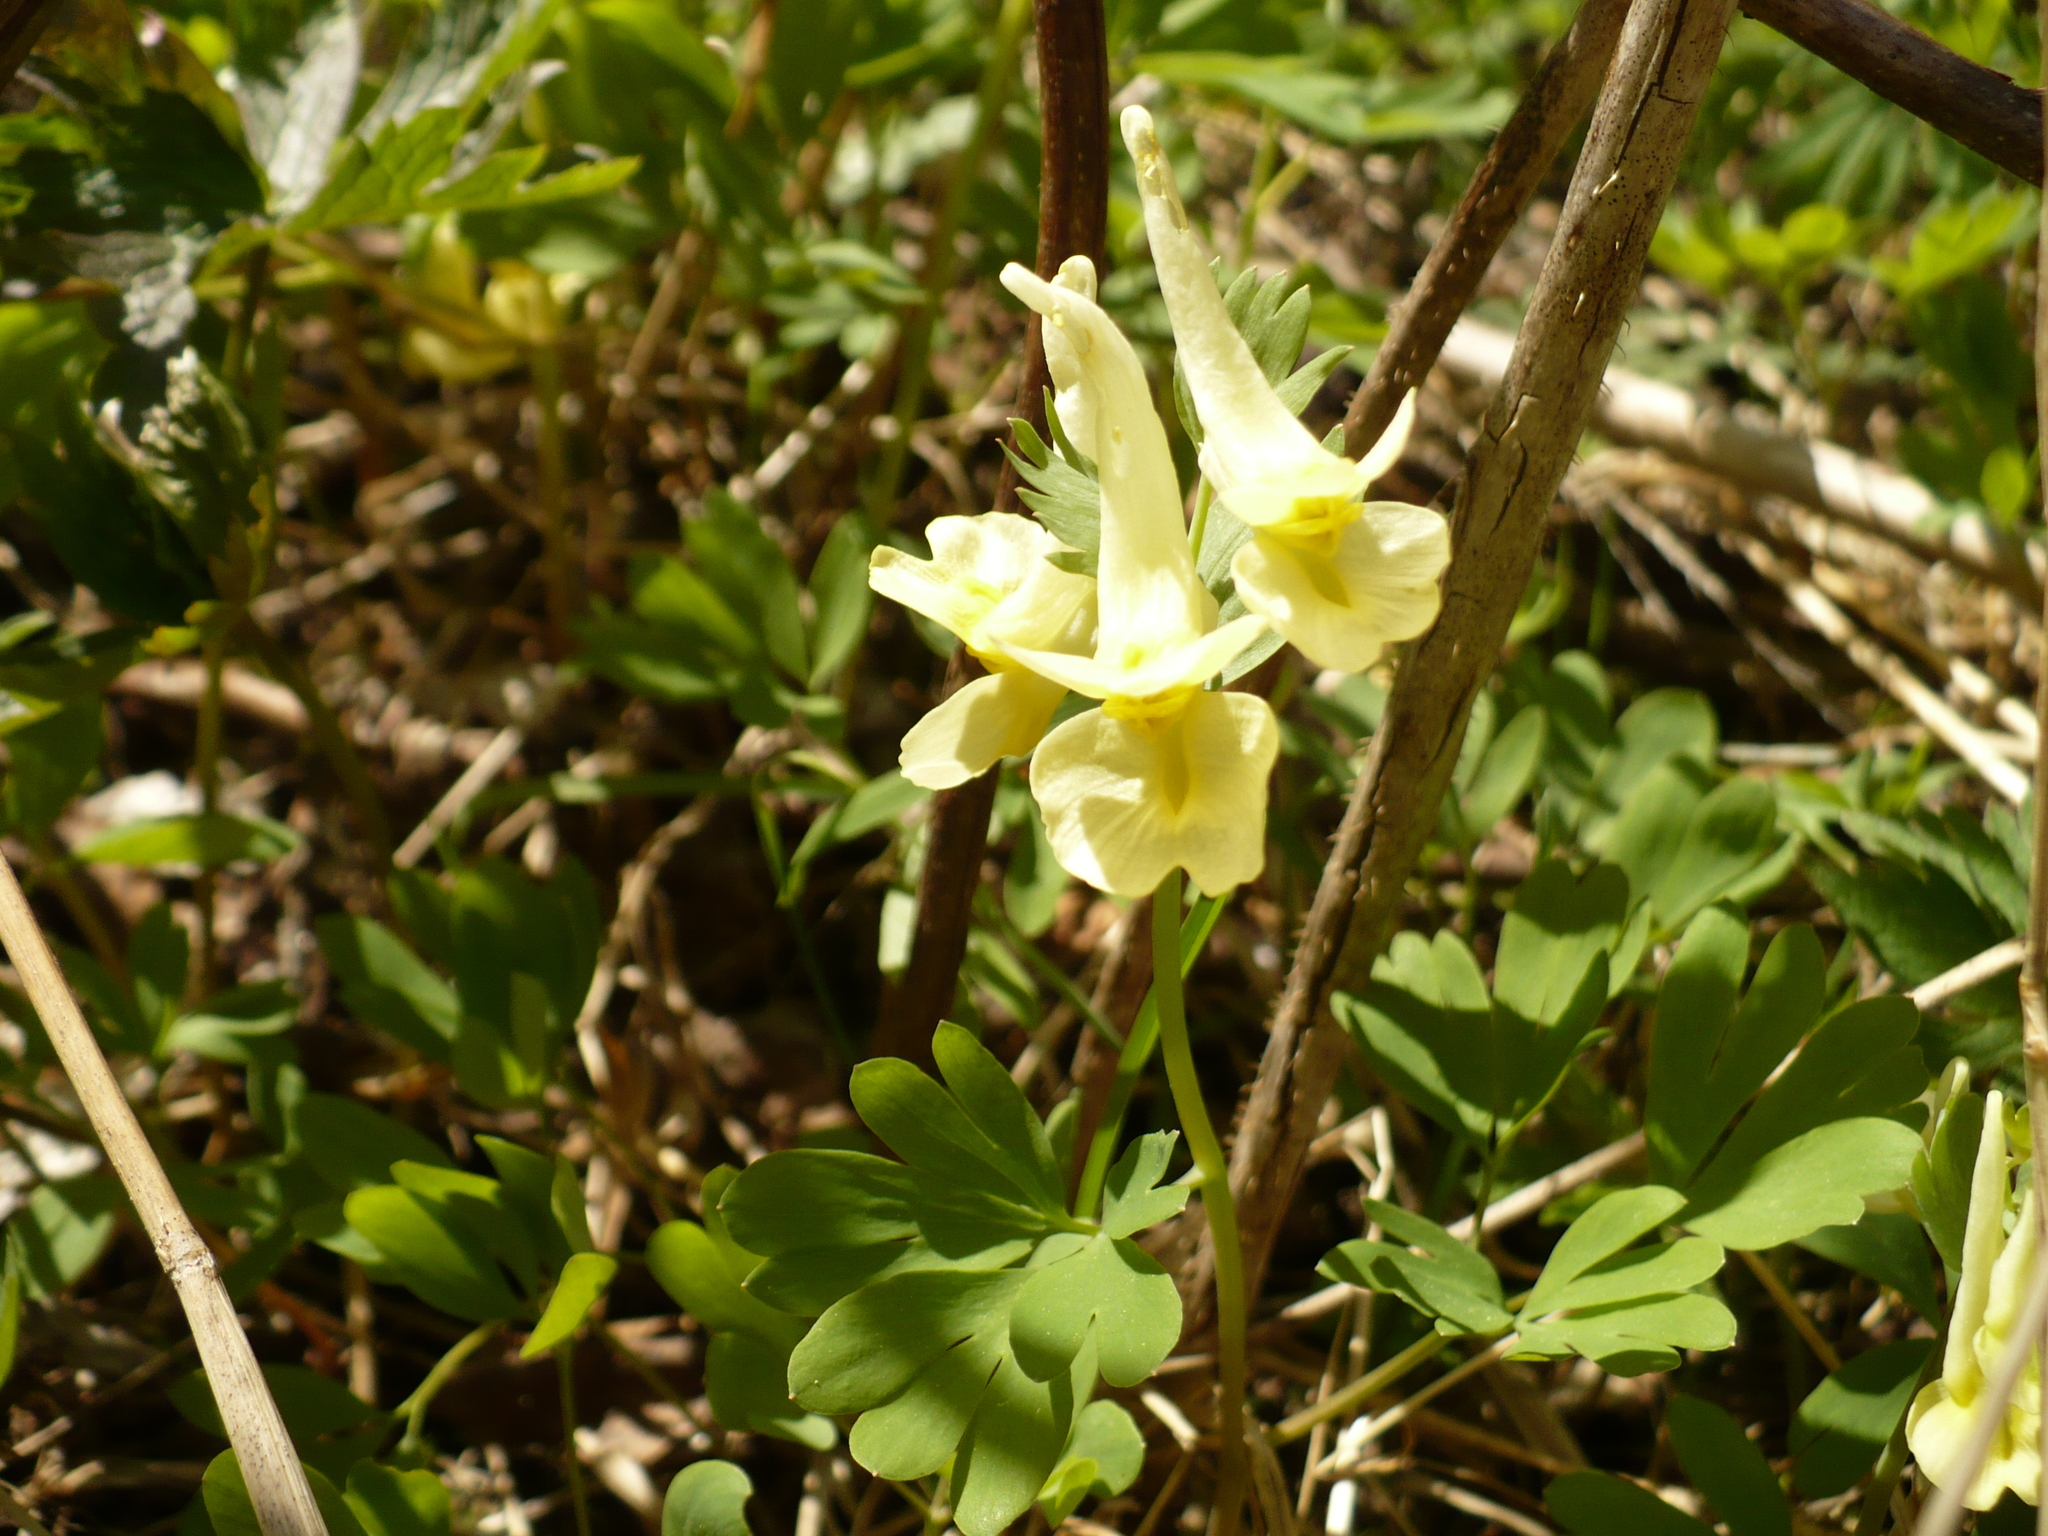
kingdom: Plantae
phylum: Tracheophyta
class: Magnoliopsida
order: Ranunculales
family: Papaveraceae
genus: Corydalis
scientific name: Corydalis bracteata
